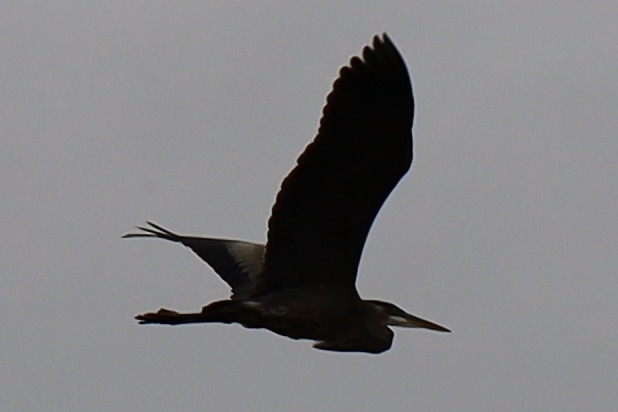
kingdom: Animalia
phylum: Chordata
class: Aves
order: Pelecaniformes
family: Ardeidae
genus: Ardea
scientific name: Ardea herodias
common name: Great blue heron
